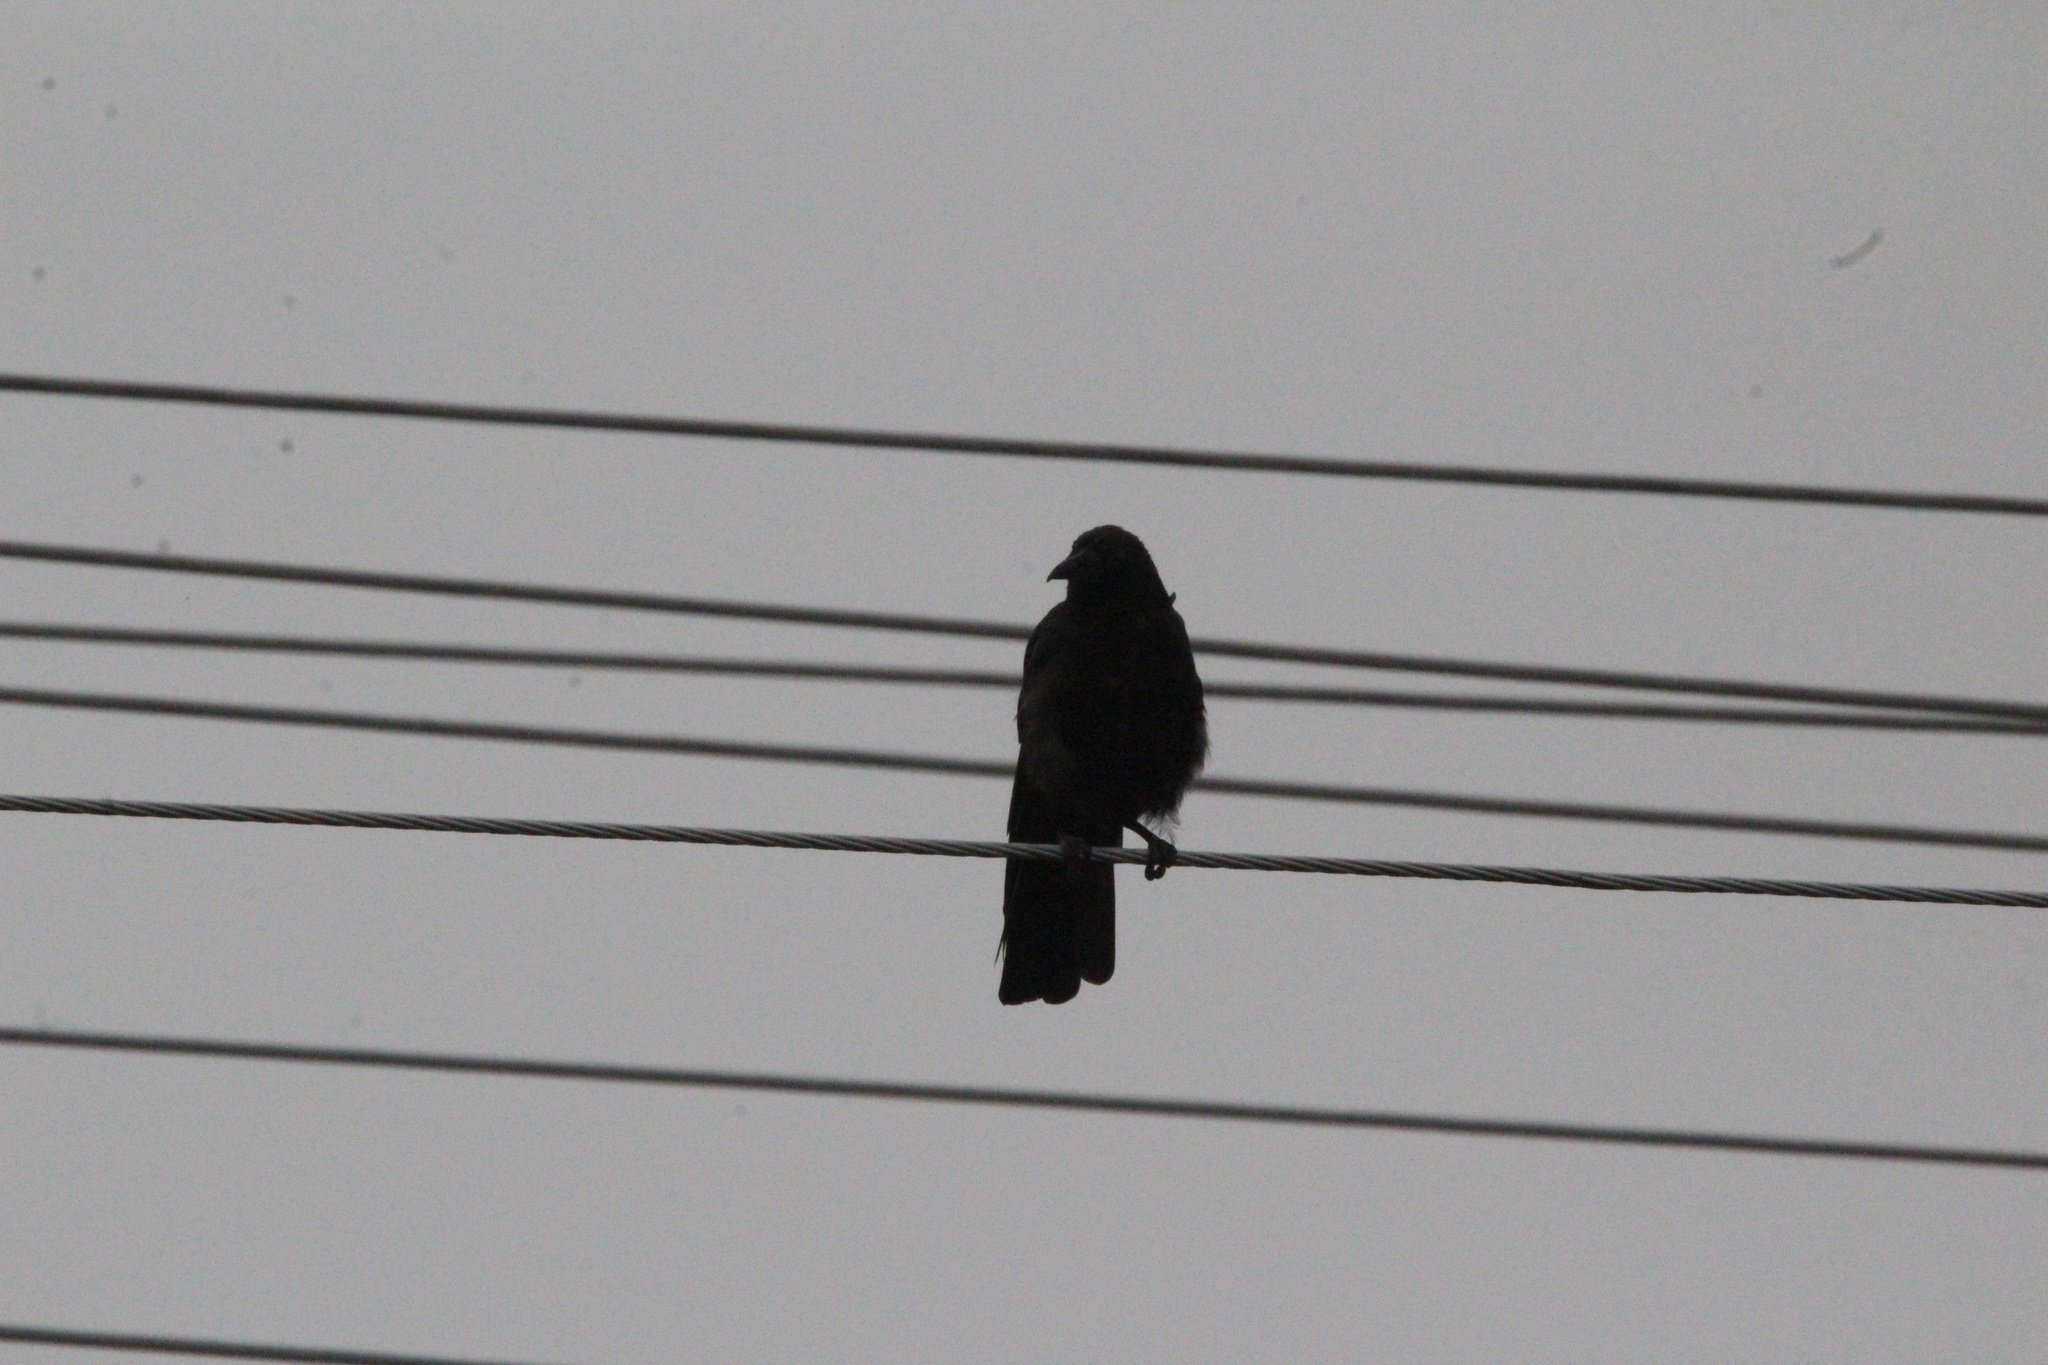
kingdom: Animalia
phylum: Chordata
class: Aves
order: Passeriformes
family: Corvidae
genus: Corvus
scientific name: Corvus brachyrhynchos
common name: American crow
